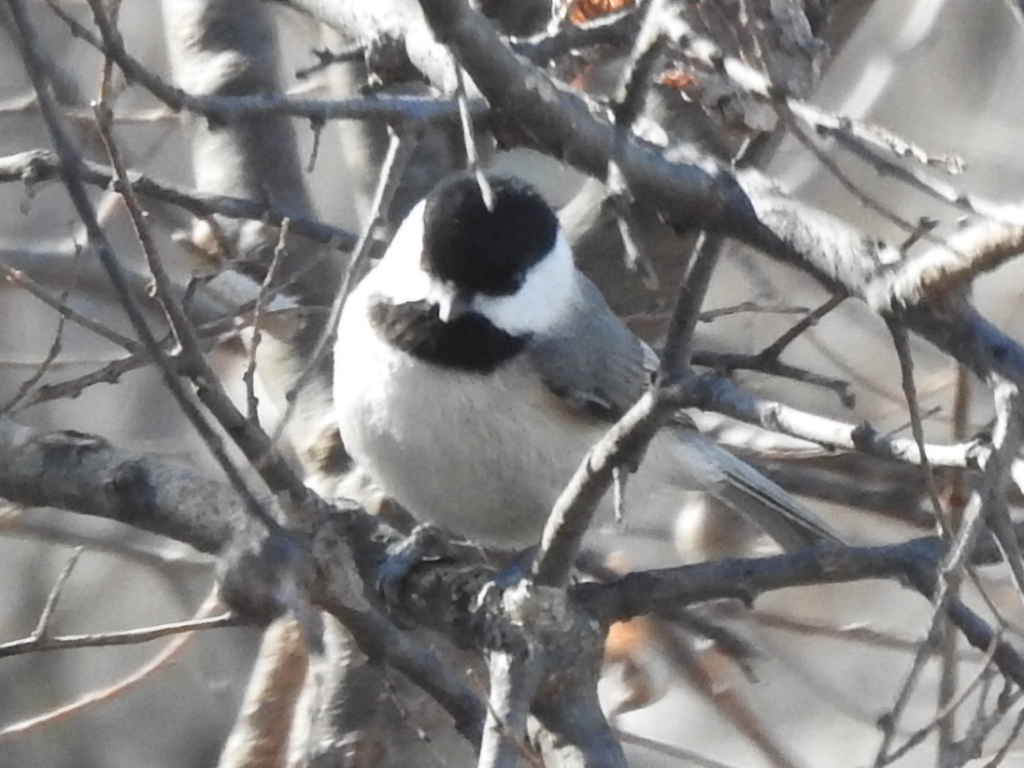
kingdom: Animalia
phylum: Chordata
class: Aves
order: Passeriformes
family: Paridae
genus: Poecile
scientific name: Poecile carolinensis
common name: Carolina chickadee
